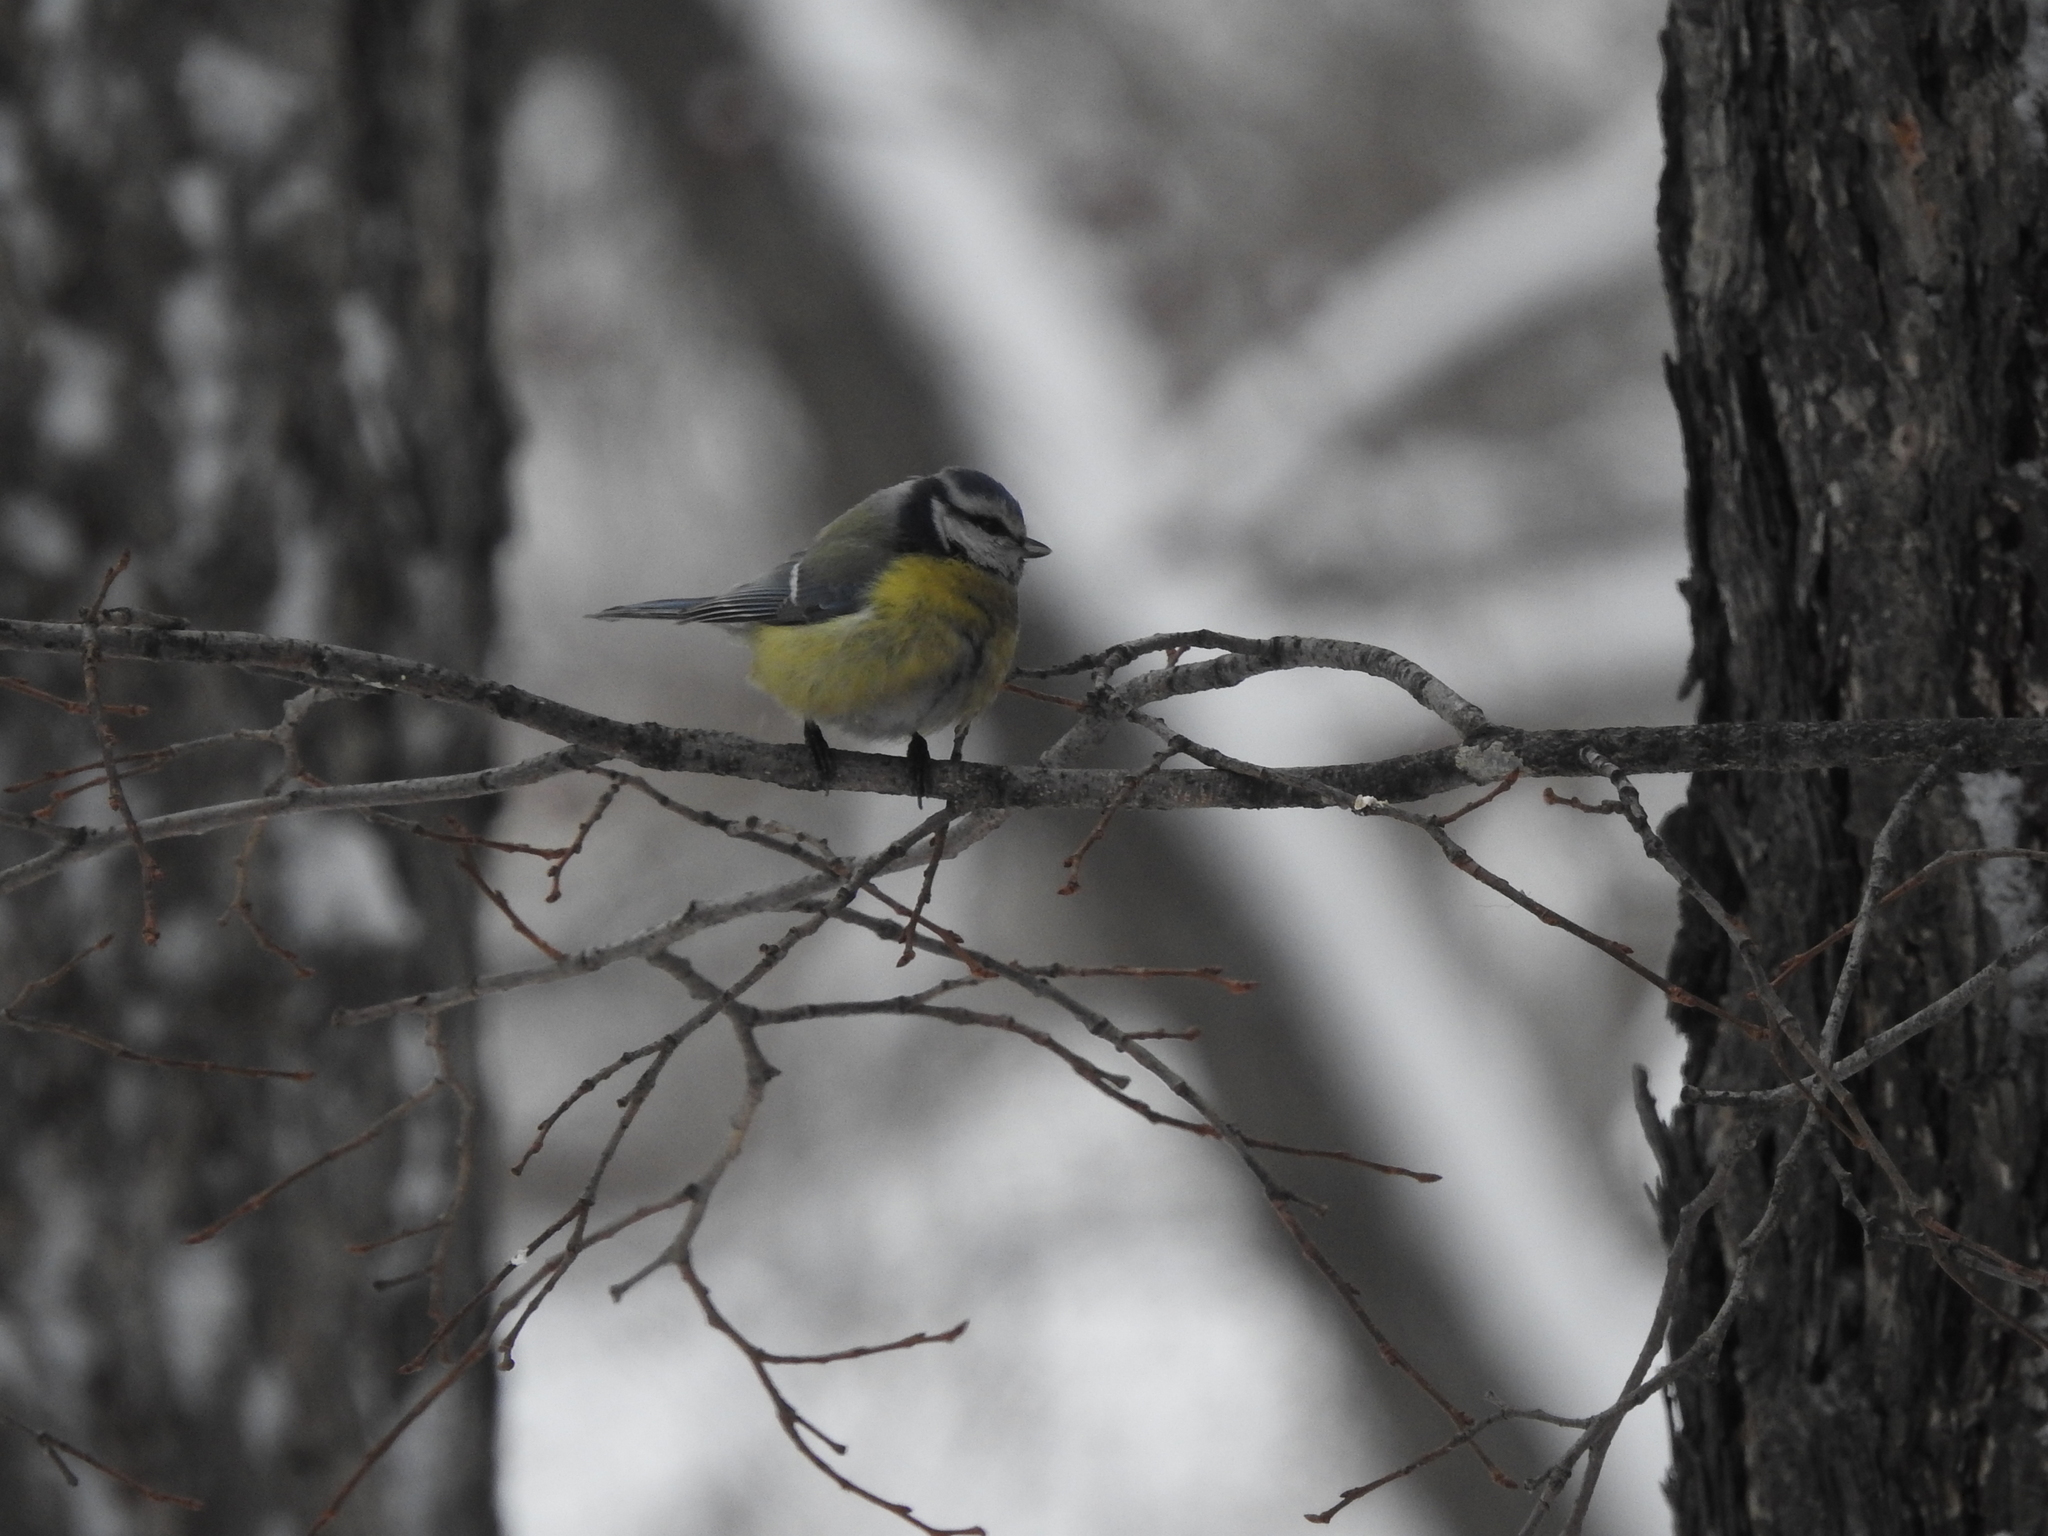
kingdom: Animalia
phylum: Chordata
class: Aves
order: Passeriformes
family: Paridae
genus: Cyanistes
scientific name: Cyanistes caeruleus
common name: Eurasian blue tit
